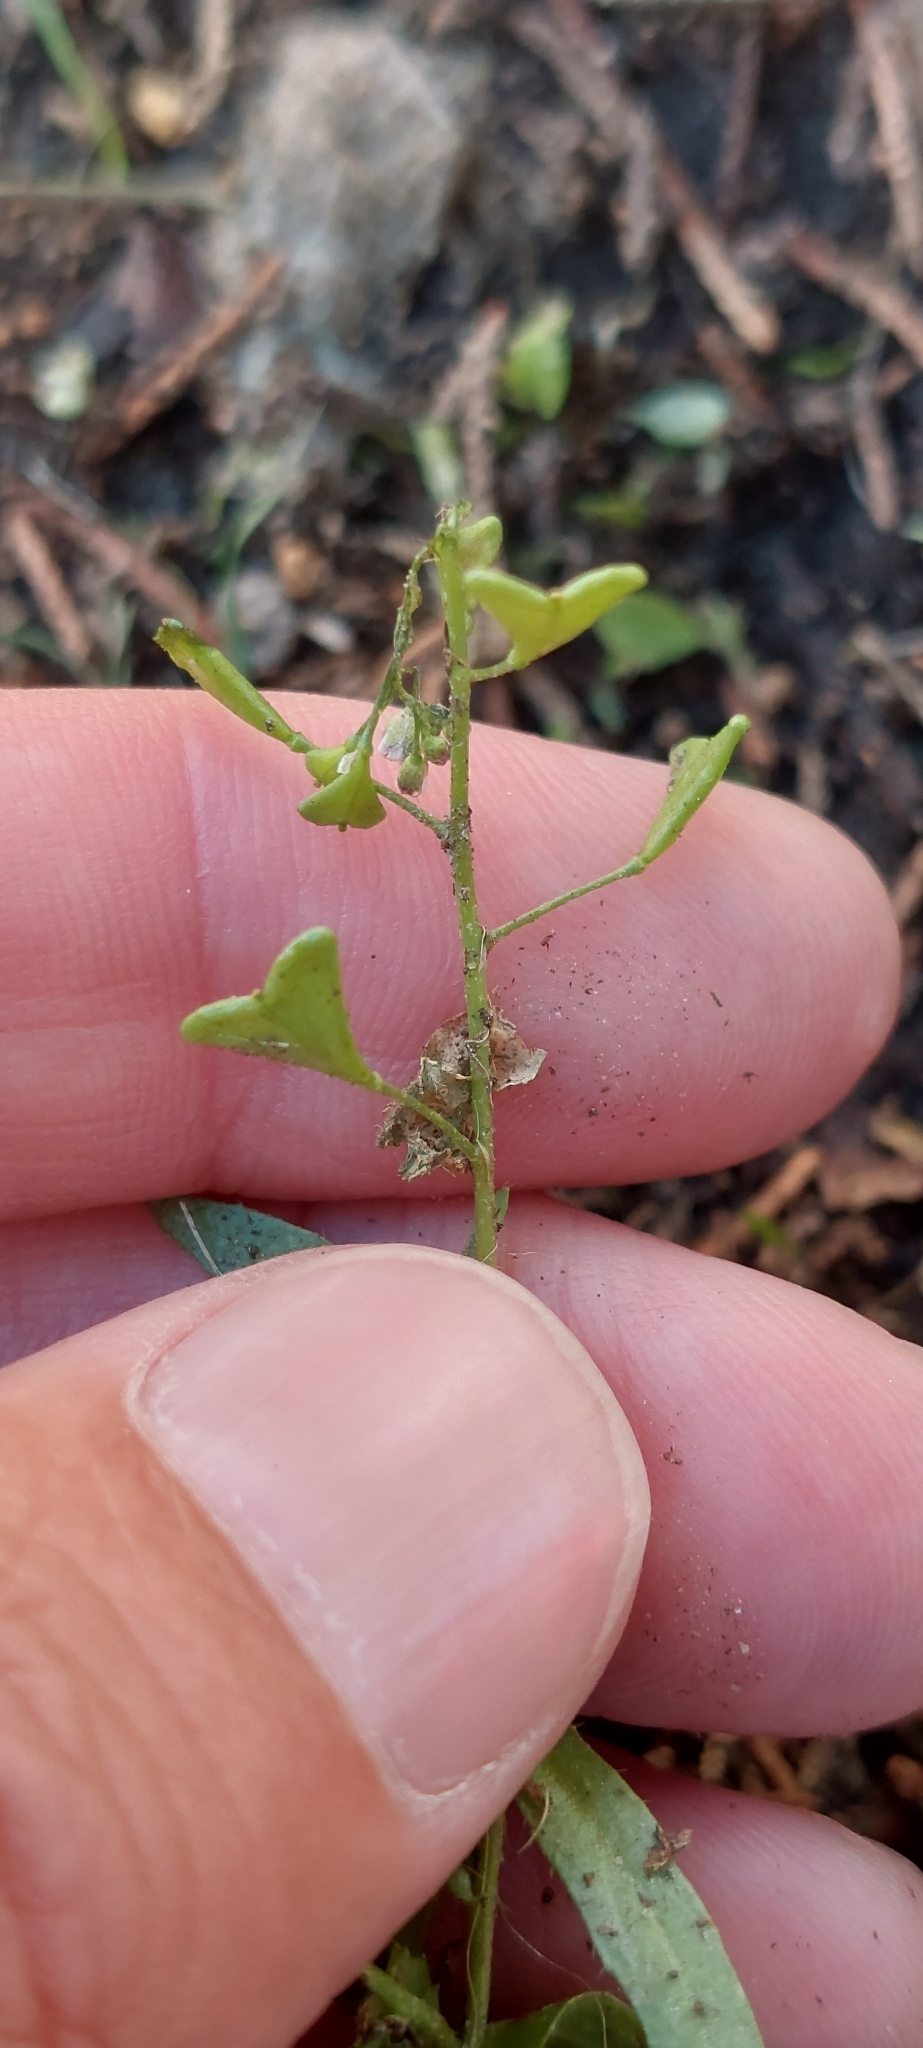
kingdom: Plantae
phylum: Tracheophyta
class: Magnoliopsida
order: Brassicales
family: Brassicaceae
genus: Capsella
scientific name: Capsella bursa-pastoris
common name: Shepherd's purse
